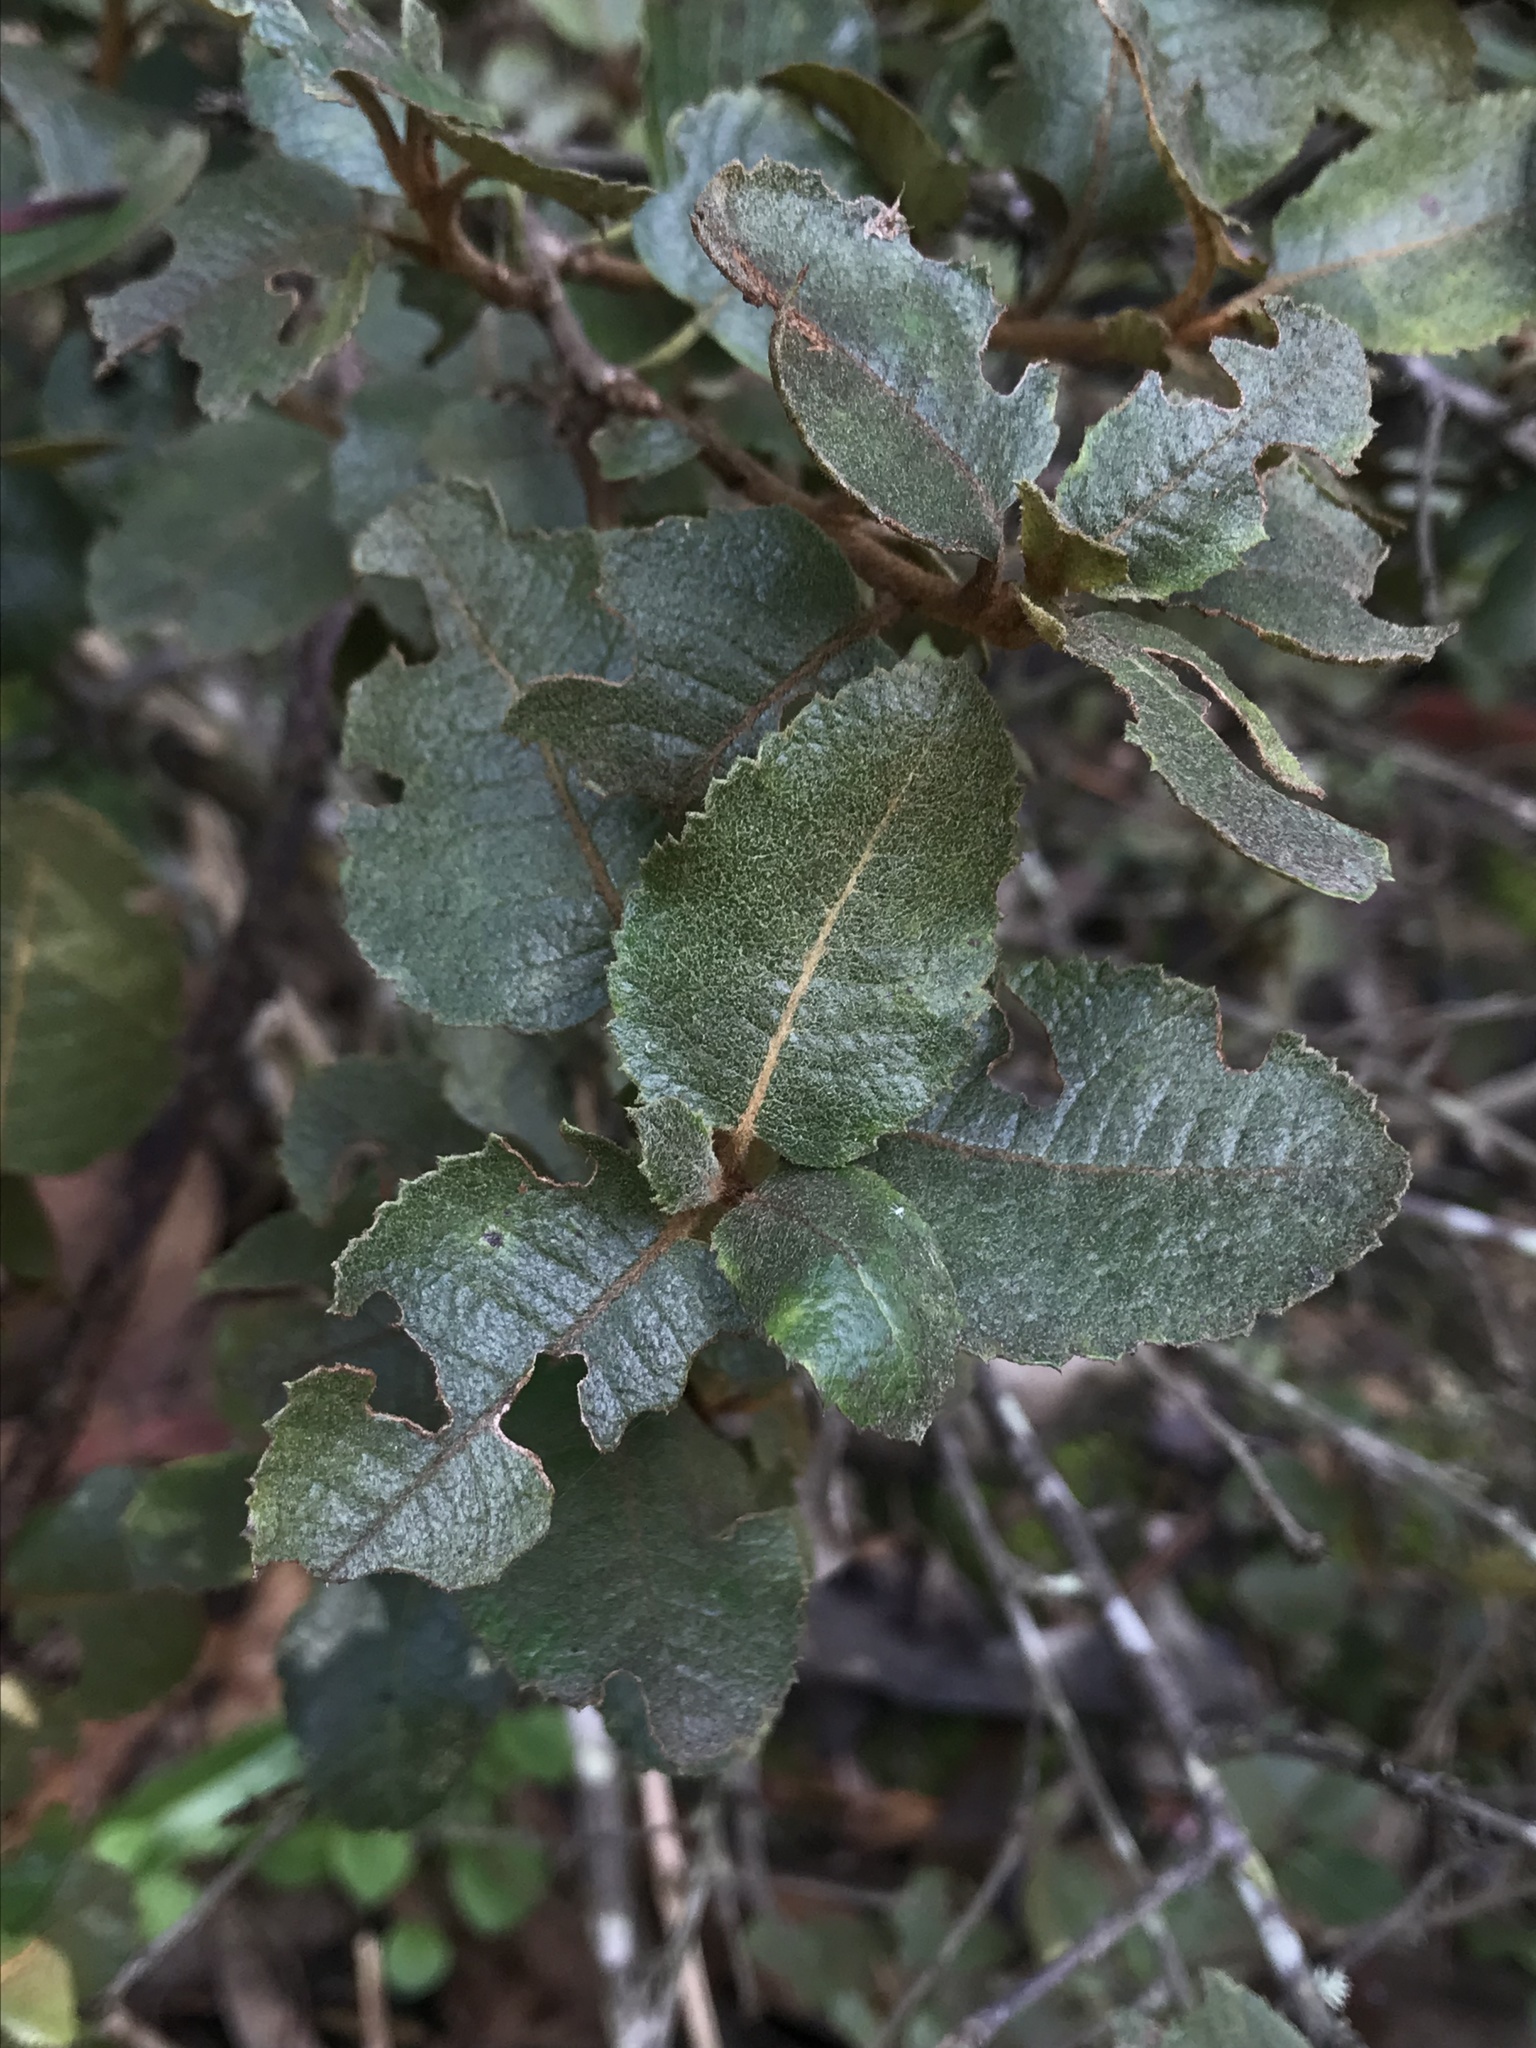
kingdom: Plantae
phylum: Tracheophyta
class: Magnoliopsida
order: Rosales
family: Rosaceae
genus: Hesperomeles
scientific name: Hesperomeles goudotiana
